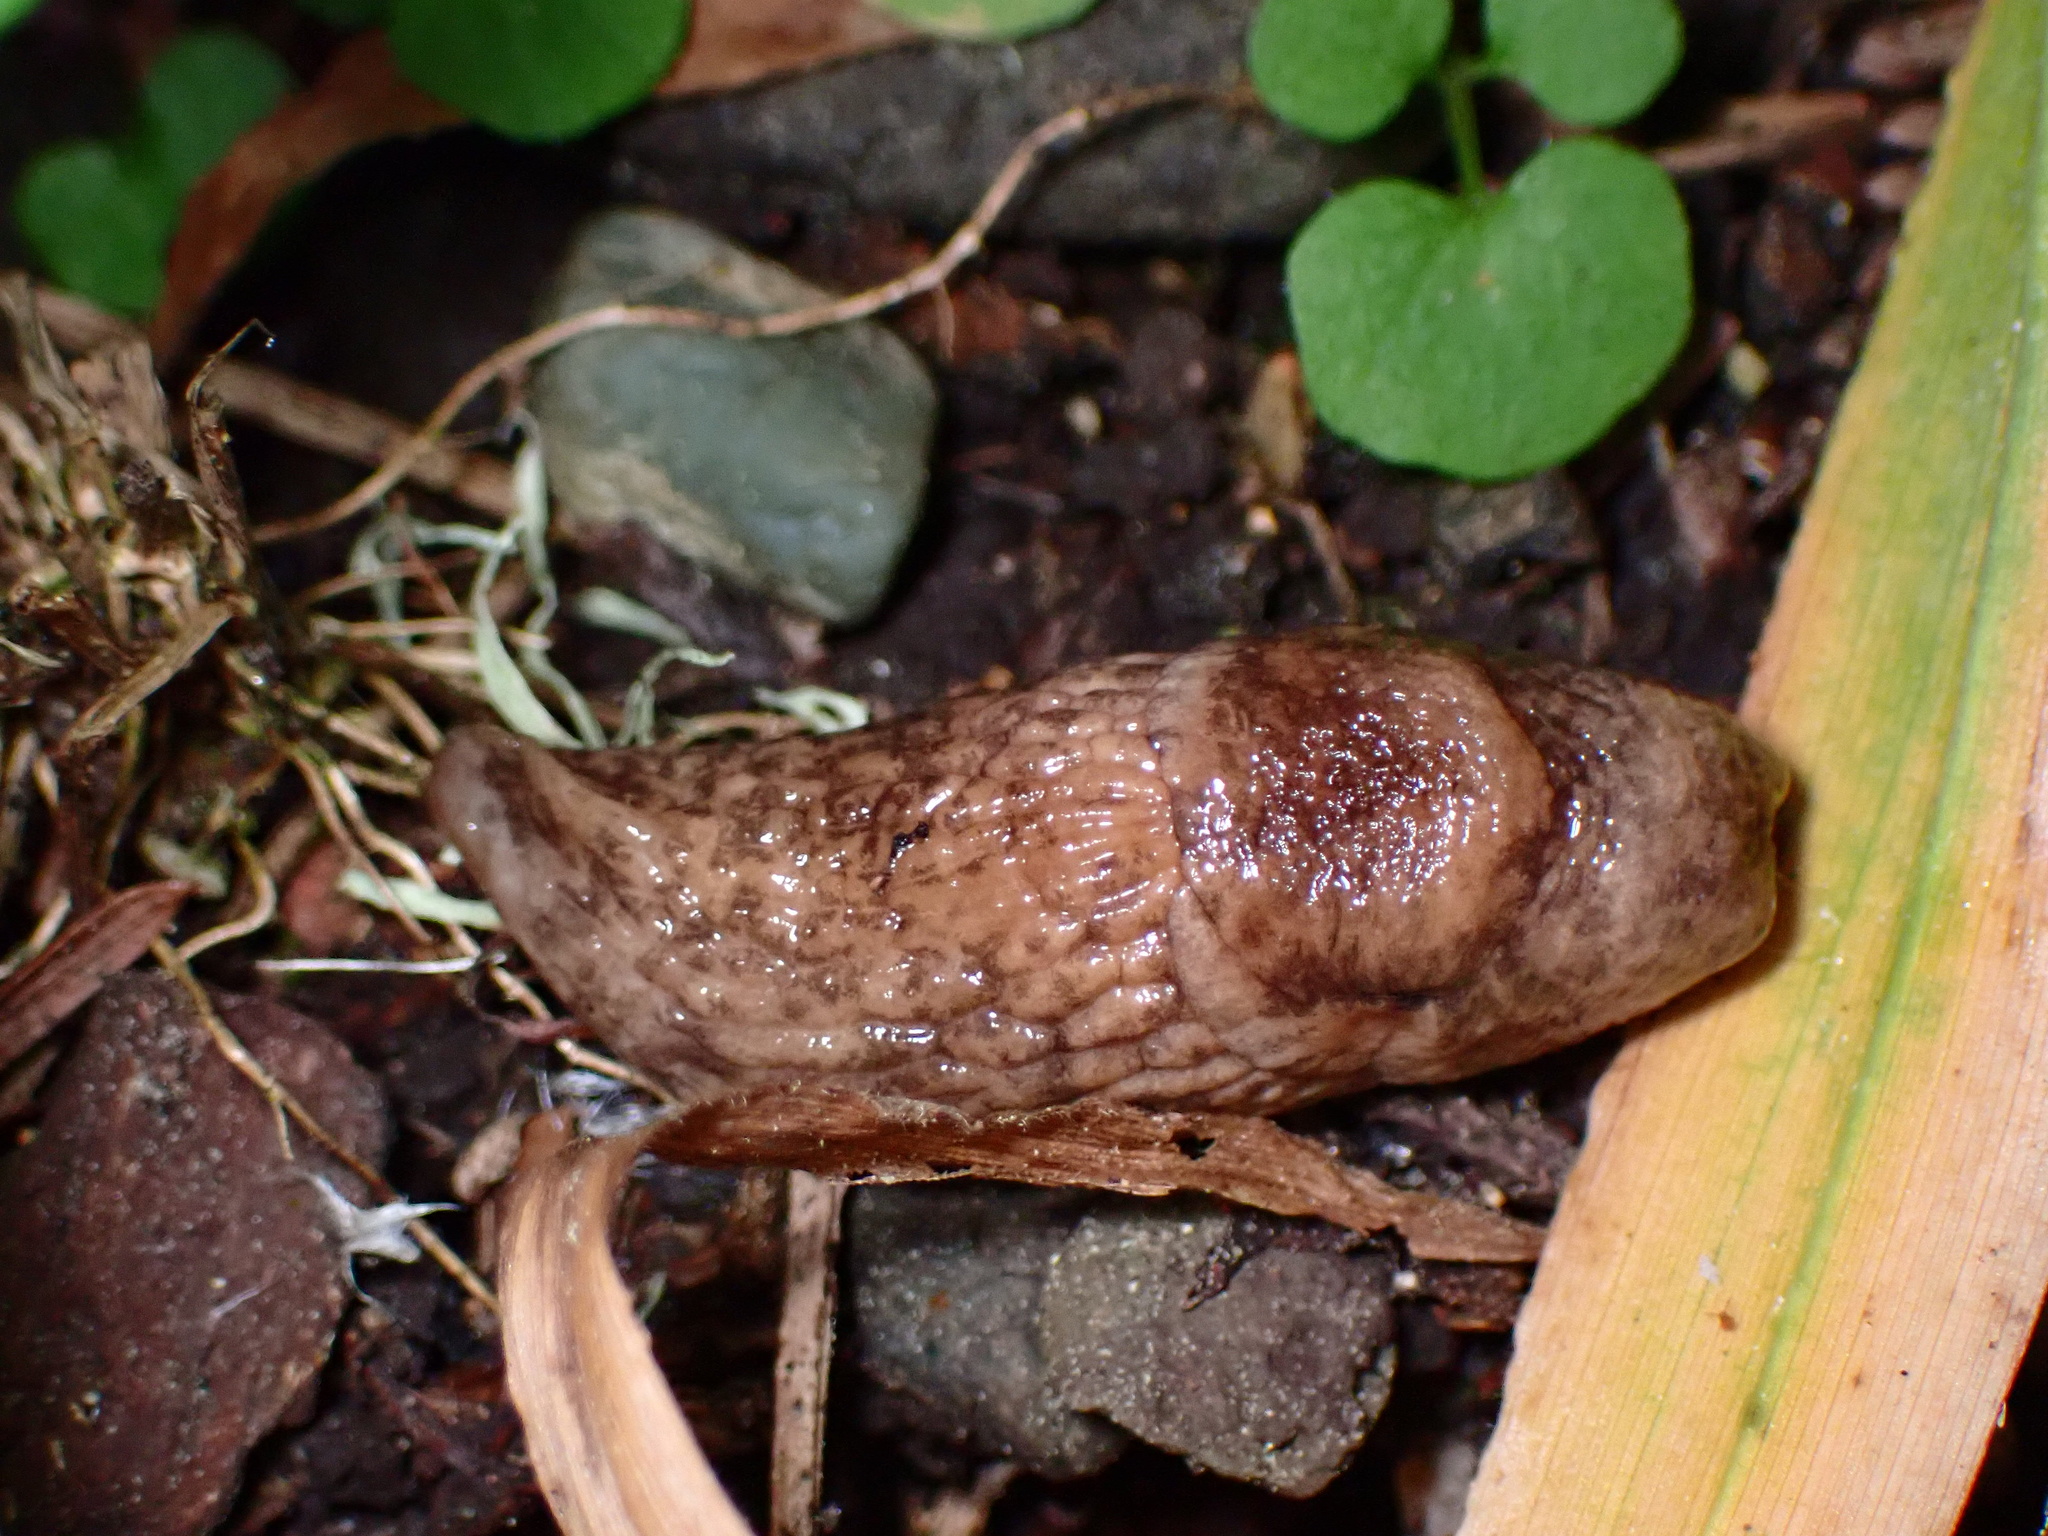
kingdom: Animalia
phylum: Mollusca
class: Gastropoda
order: Stylommatophora
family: Agriolimacidae
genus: Deroceras
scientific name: Deroceras reticulatum
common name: Gray field slug
